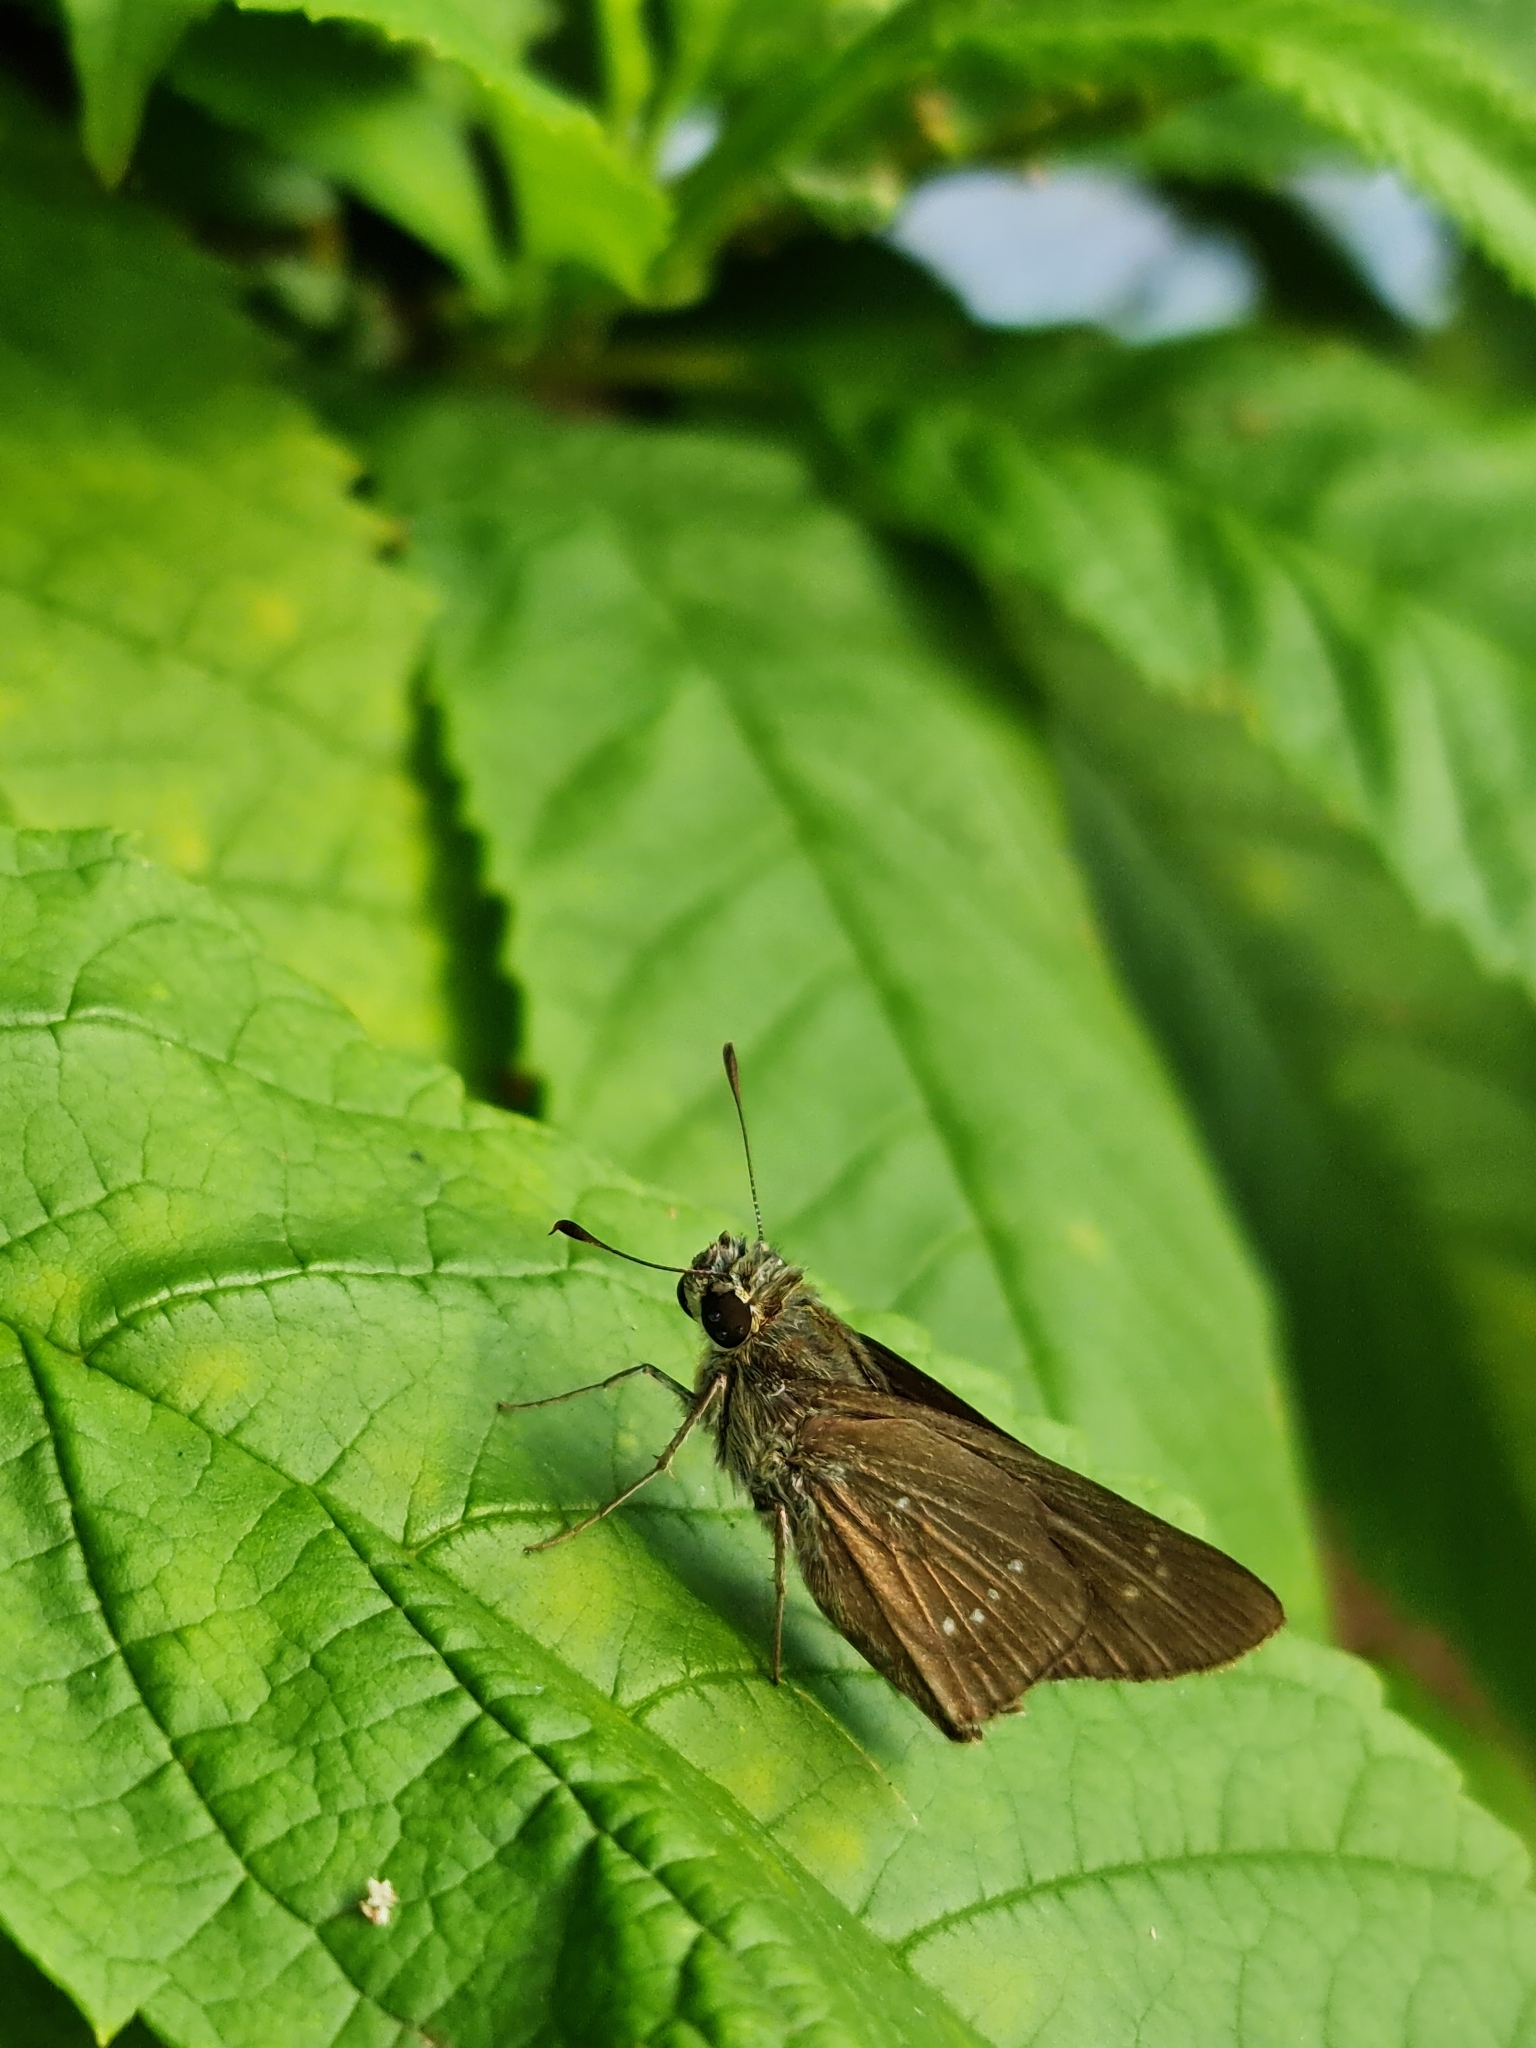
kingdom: Animalia
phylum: Arthropoda
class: Insecta
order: Lepidoptera
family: Hesperiidae
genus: Pelopidas
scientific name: Pelopidas agna
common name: Little branded swift
